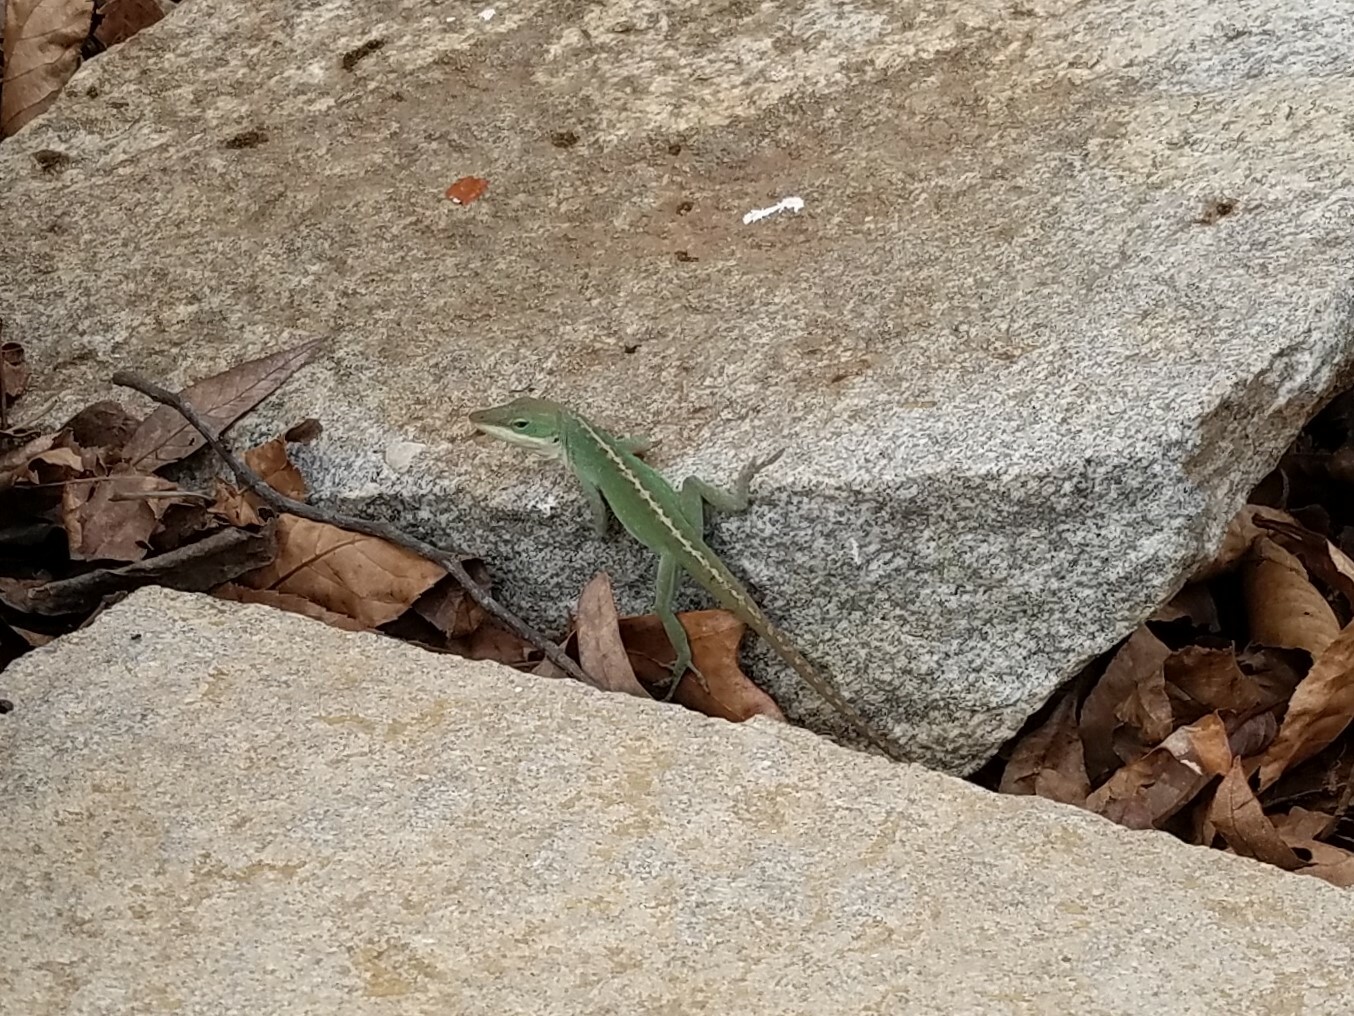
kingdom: Animalia
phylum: Chordata
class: Squamata
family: Dactyloidae
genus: Anolis
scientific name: Anolis carolinensis
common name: Green anole
